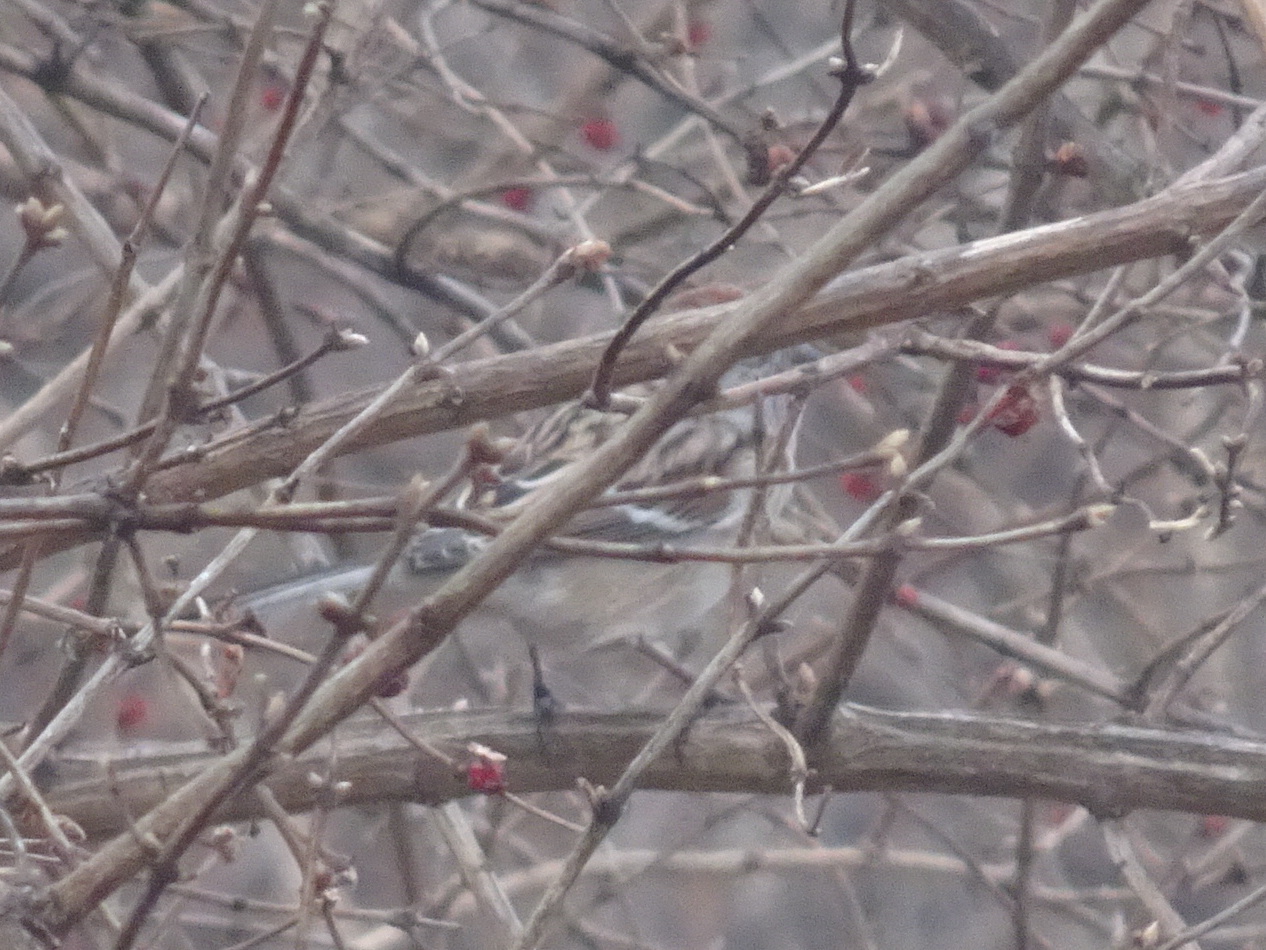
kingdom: Animalia
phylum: Chordata
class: Aves
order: Passeriformes
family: Passerellidae
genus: Spizelloides
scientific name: Spizelloides arborea
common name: American tree sparrow
